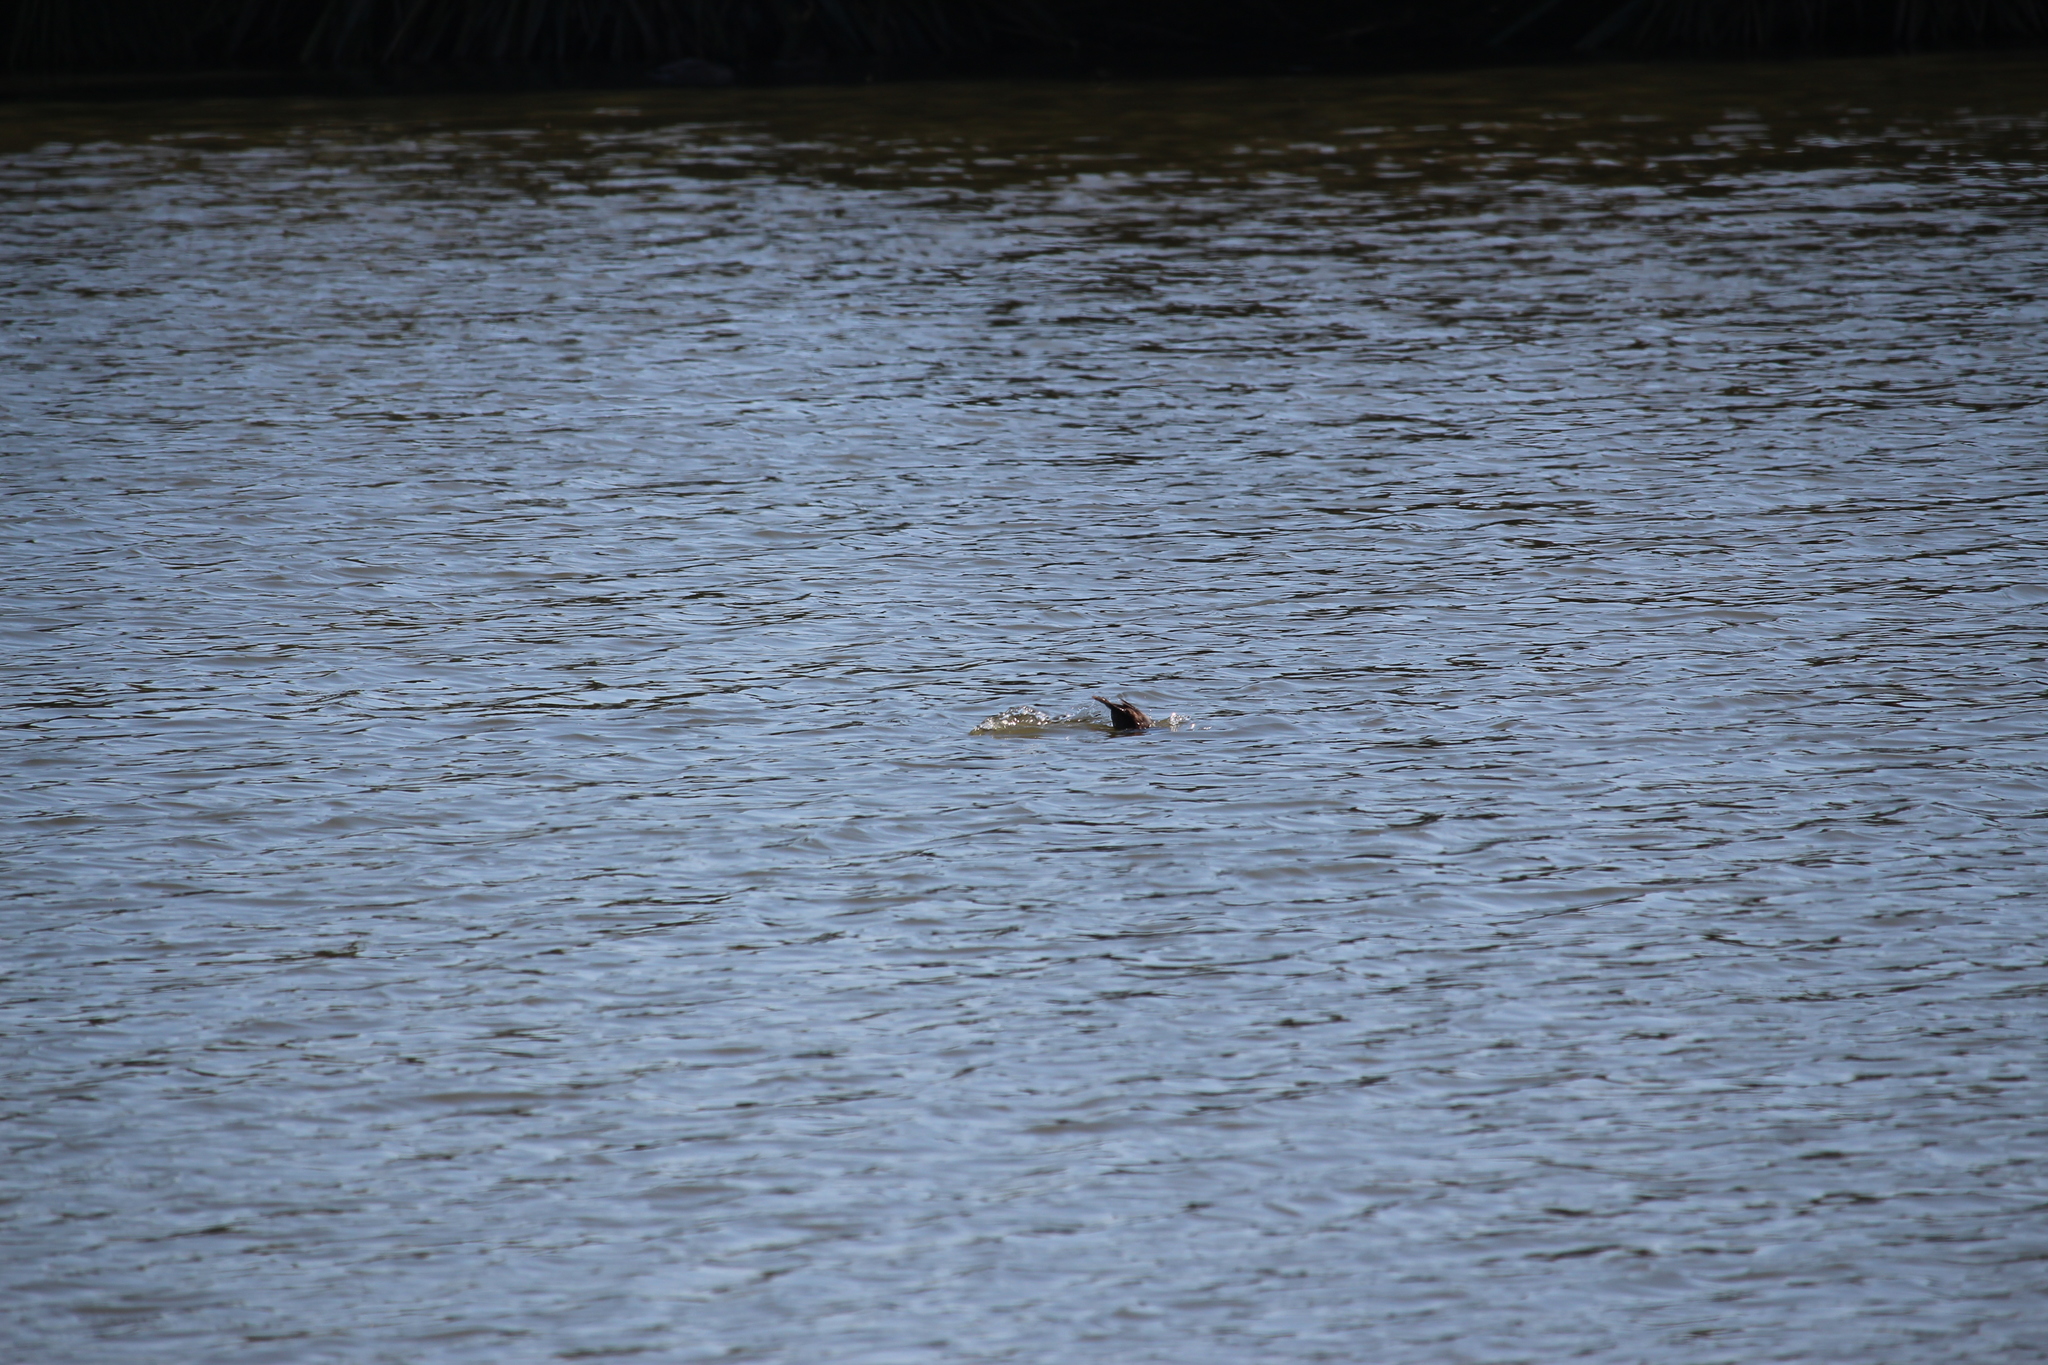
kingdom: Animalia
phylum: Chordata
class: Aves
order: Anseriformes
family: Anatidae
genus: Aythya
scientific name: Aythya novaeseelandiae
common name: New zealand scaup
